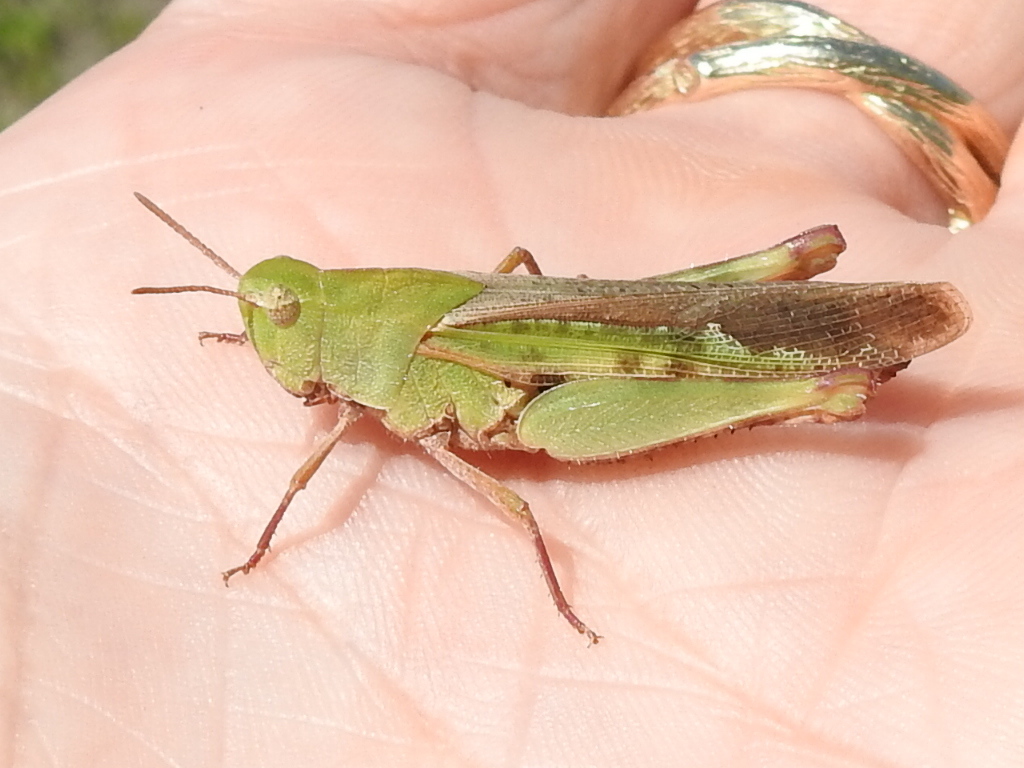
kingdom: Animalia
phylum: Arthropoda
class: Insecta
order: Orthoptera
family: Acrididae
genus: Chortophaga
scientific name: Chortophaga viridifasciata
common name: Green-striped grasshopper
